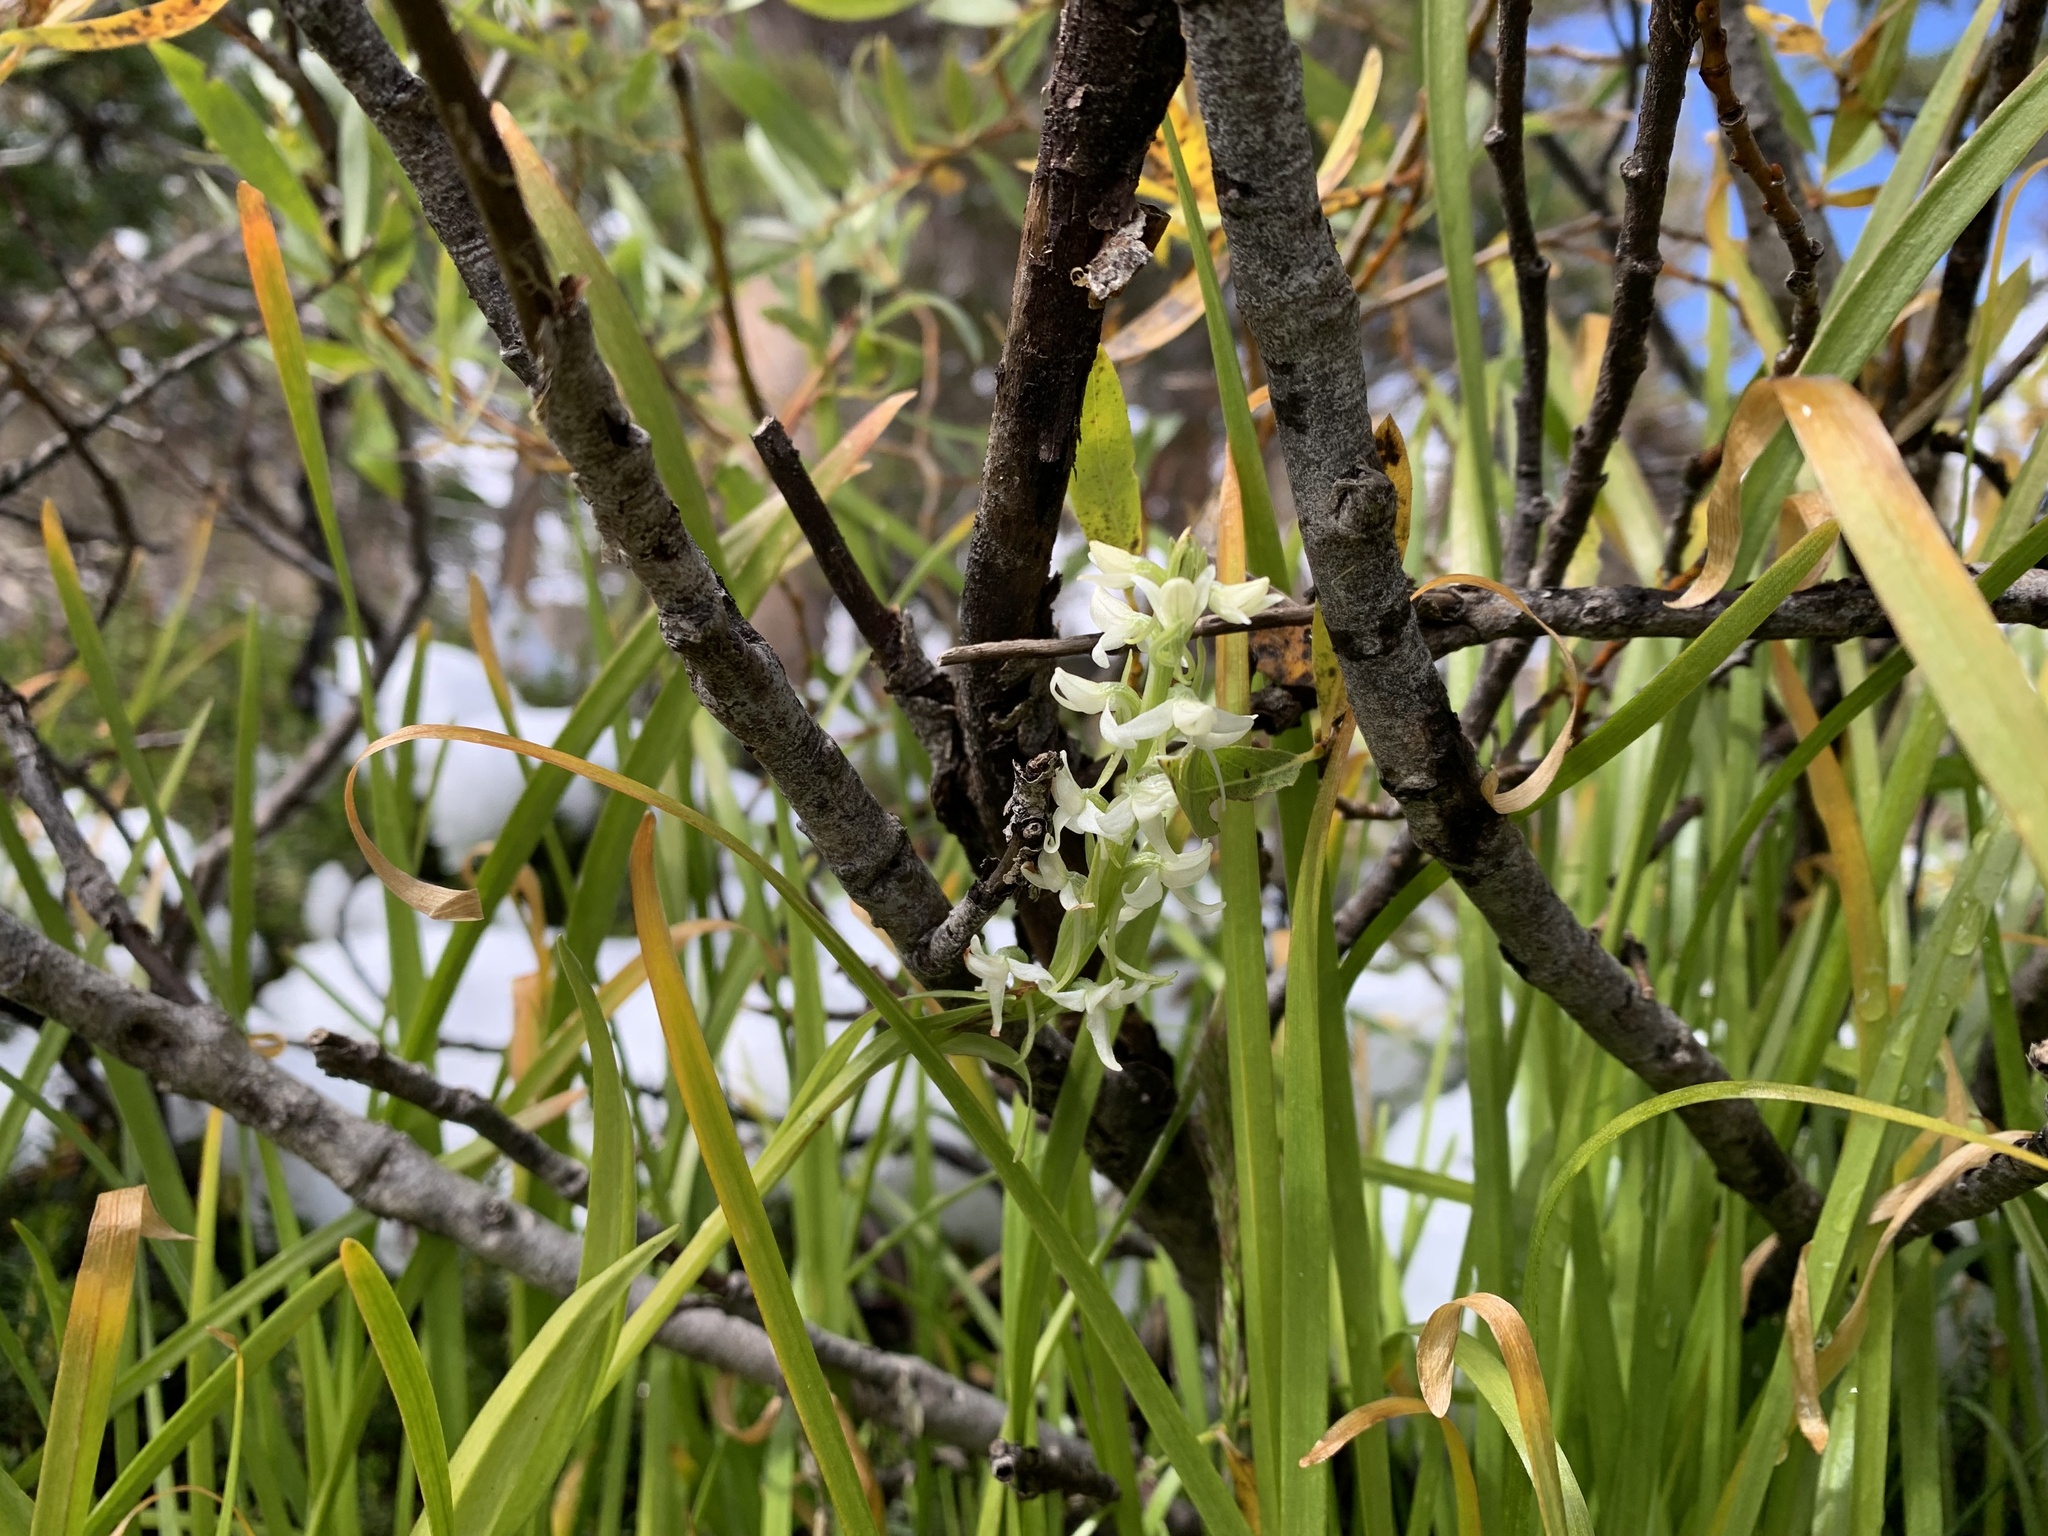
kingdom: Plantae
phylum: Tracheophyta
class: Liliopsida
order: Asparagales
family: Orchidaceae
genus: Platanthera
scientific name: Platanthera dilatata
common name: Bog candles
